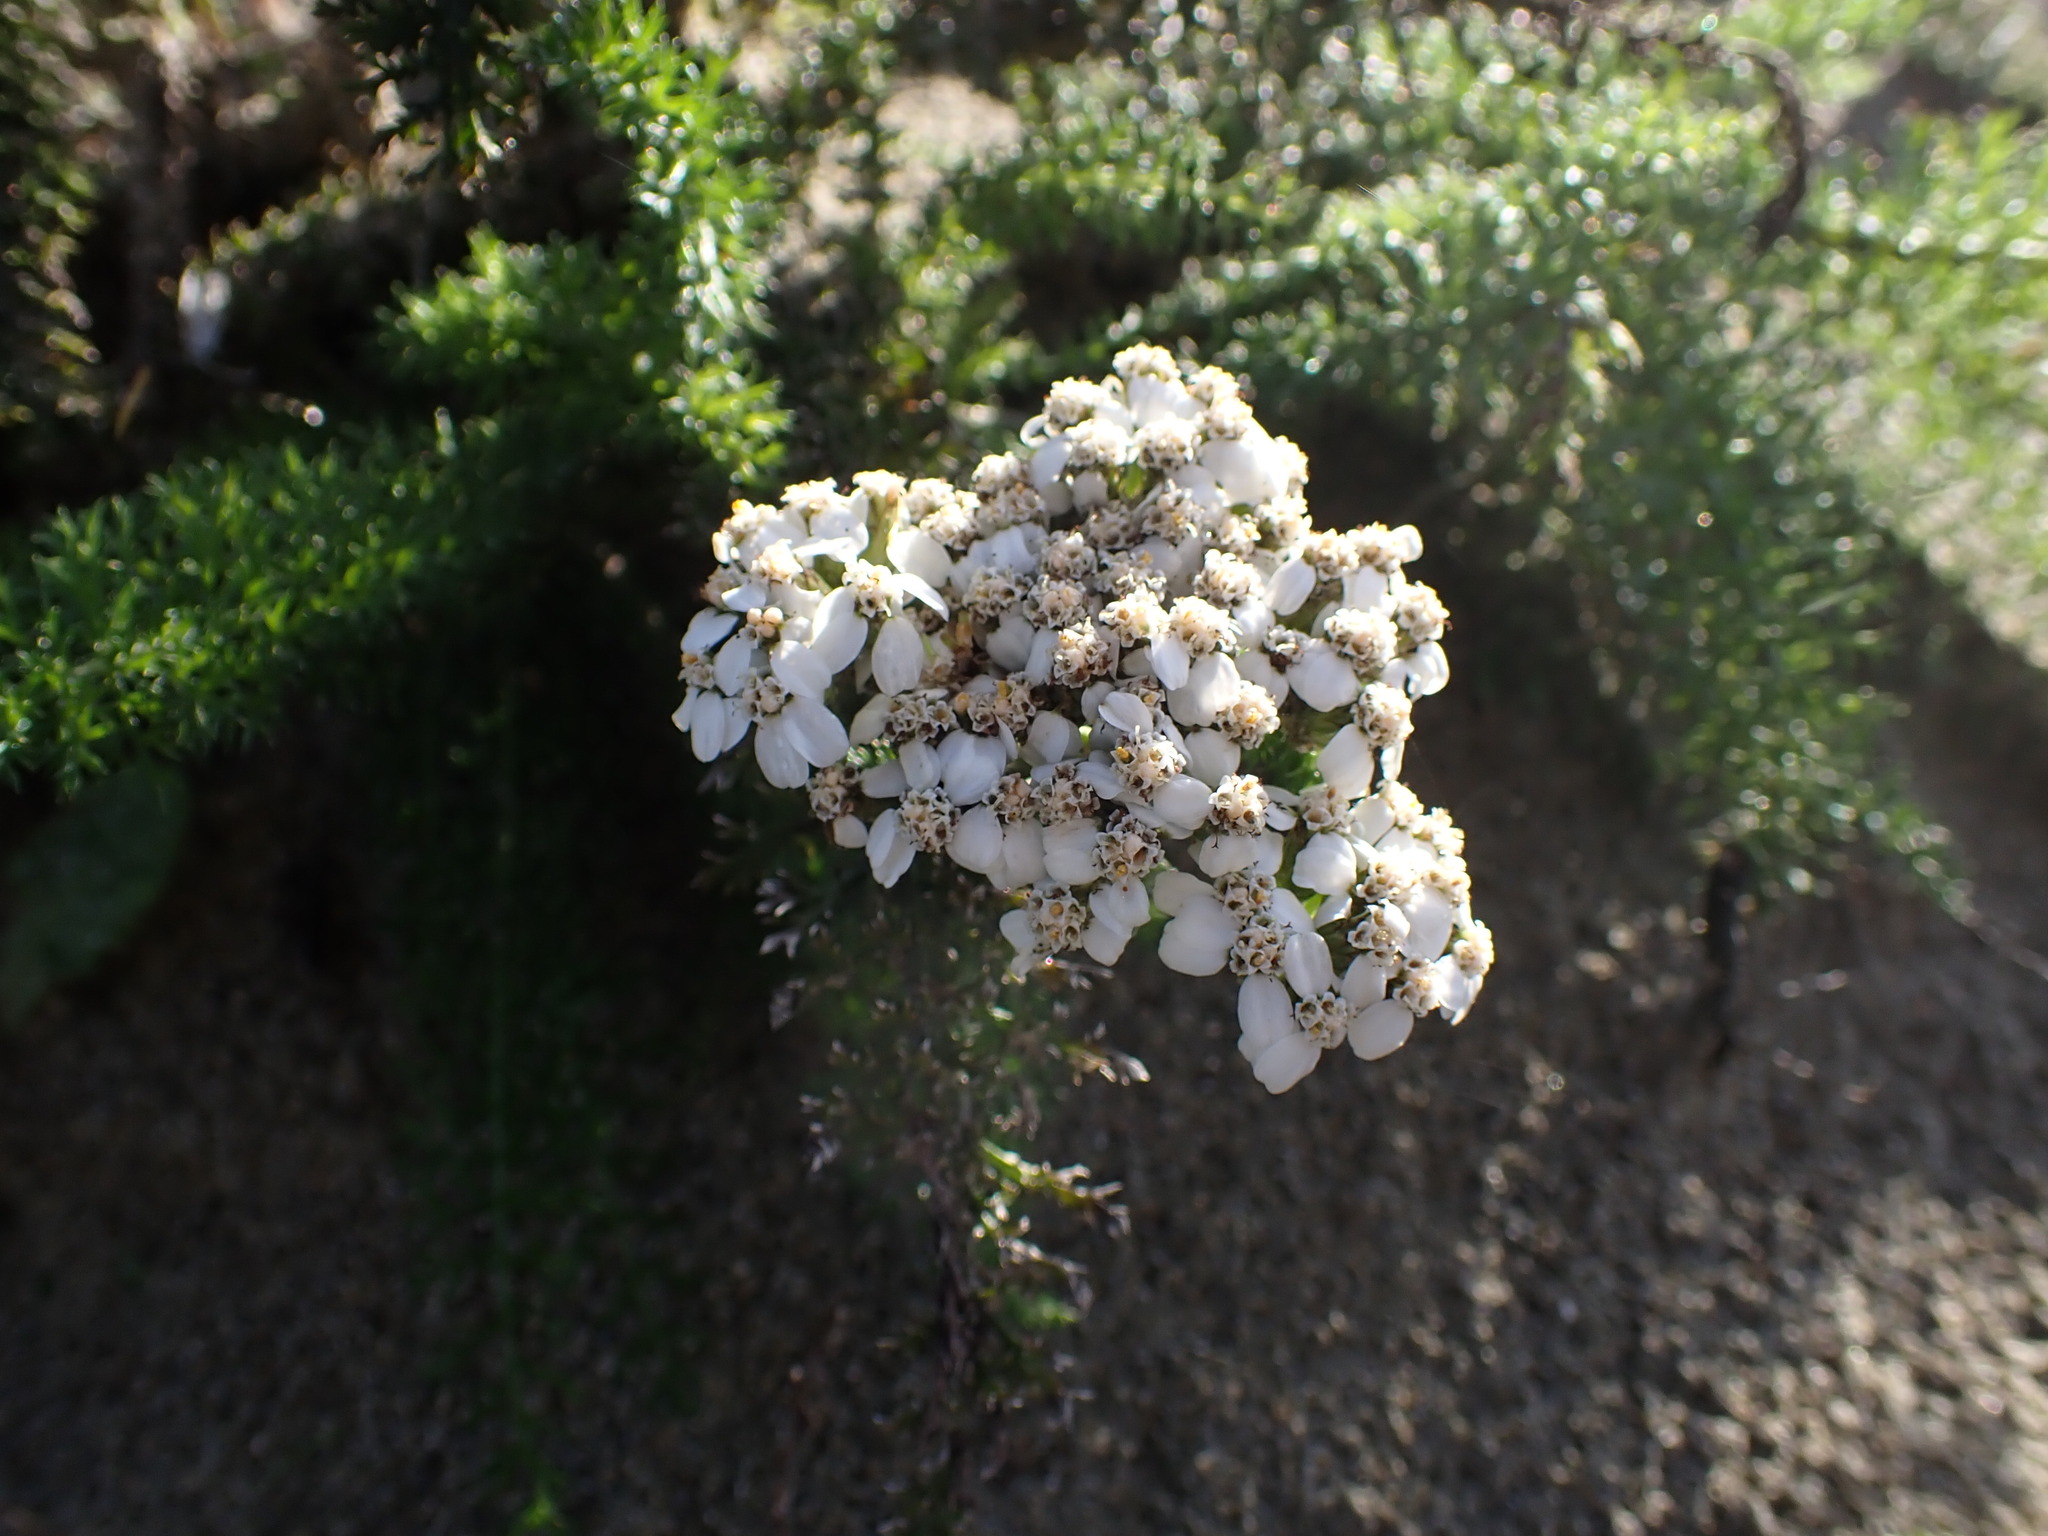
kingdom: Plantae
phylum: Tracheophyta
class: Magnoliopsida
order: Asterales
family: Asteraceae
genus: Achillea
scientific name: Achillea millefolium
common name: Yarrow
